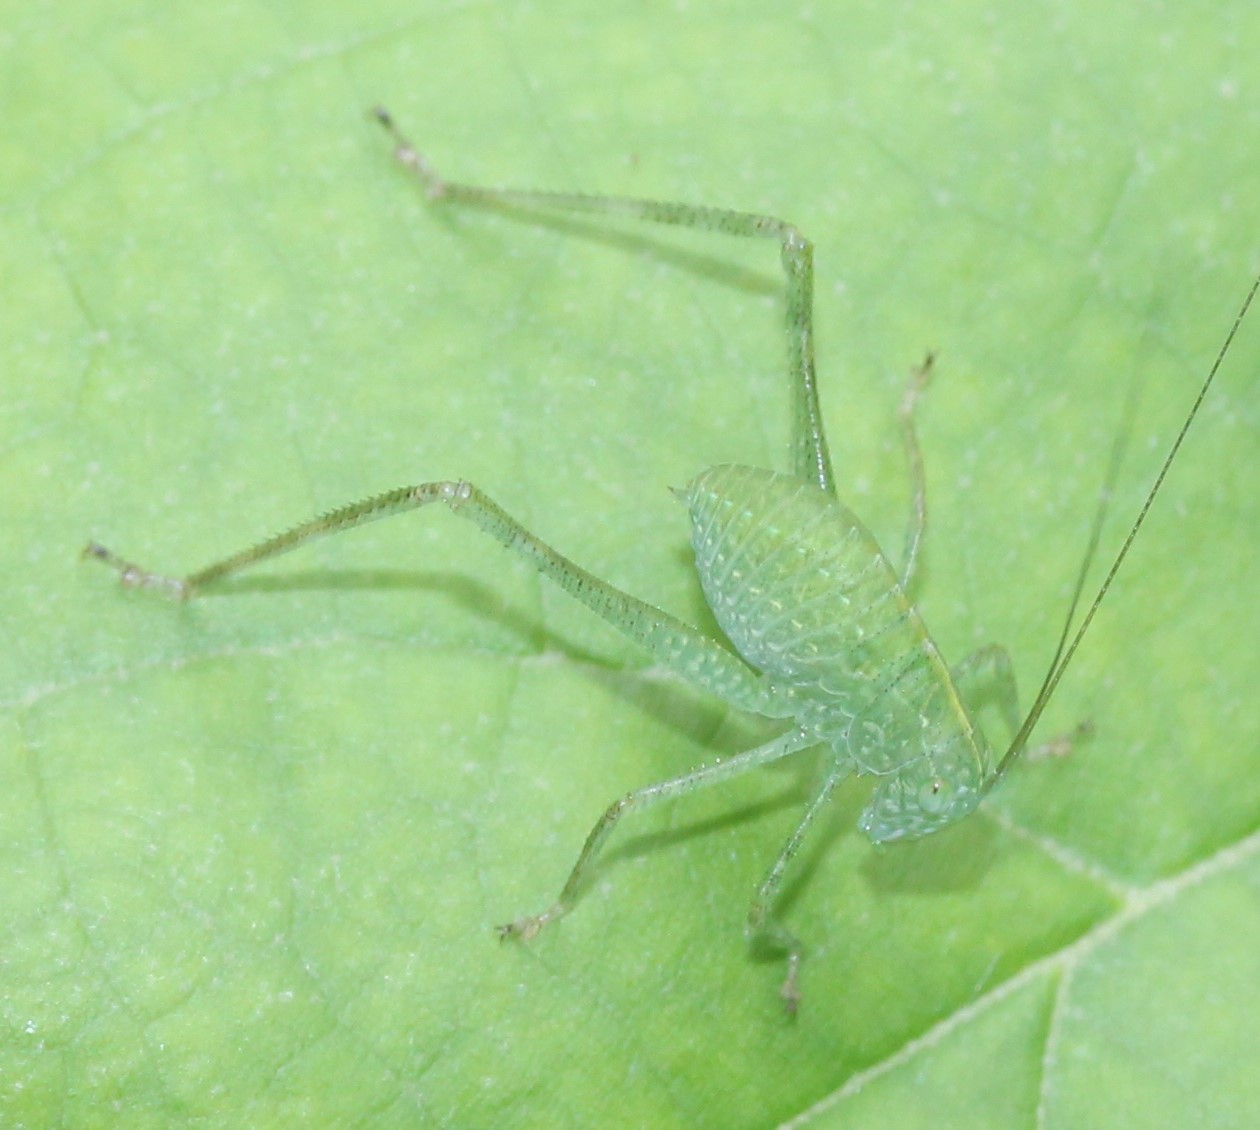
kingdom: Animalia
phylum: Arthropoda
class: Insecta
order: Orthoptera
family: Tettigoniidae
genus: Microcentrum
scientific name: Microcentrum rhombifolium
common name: Broad-winged katydid
